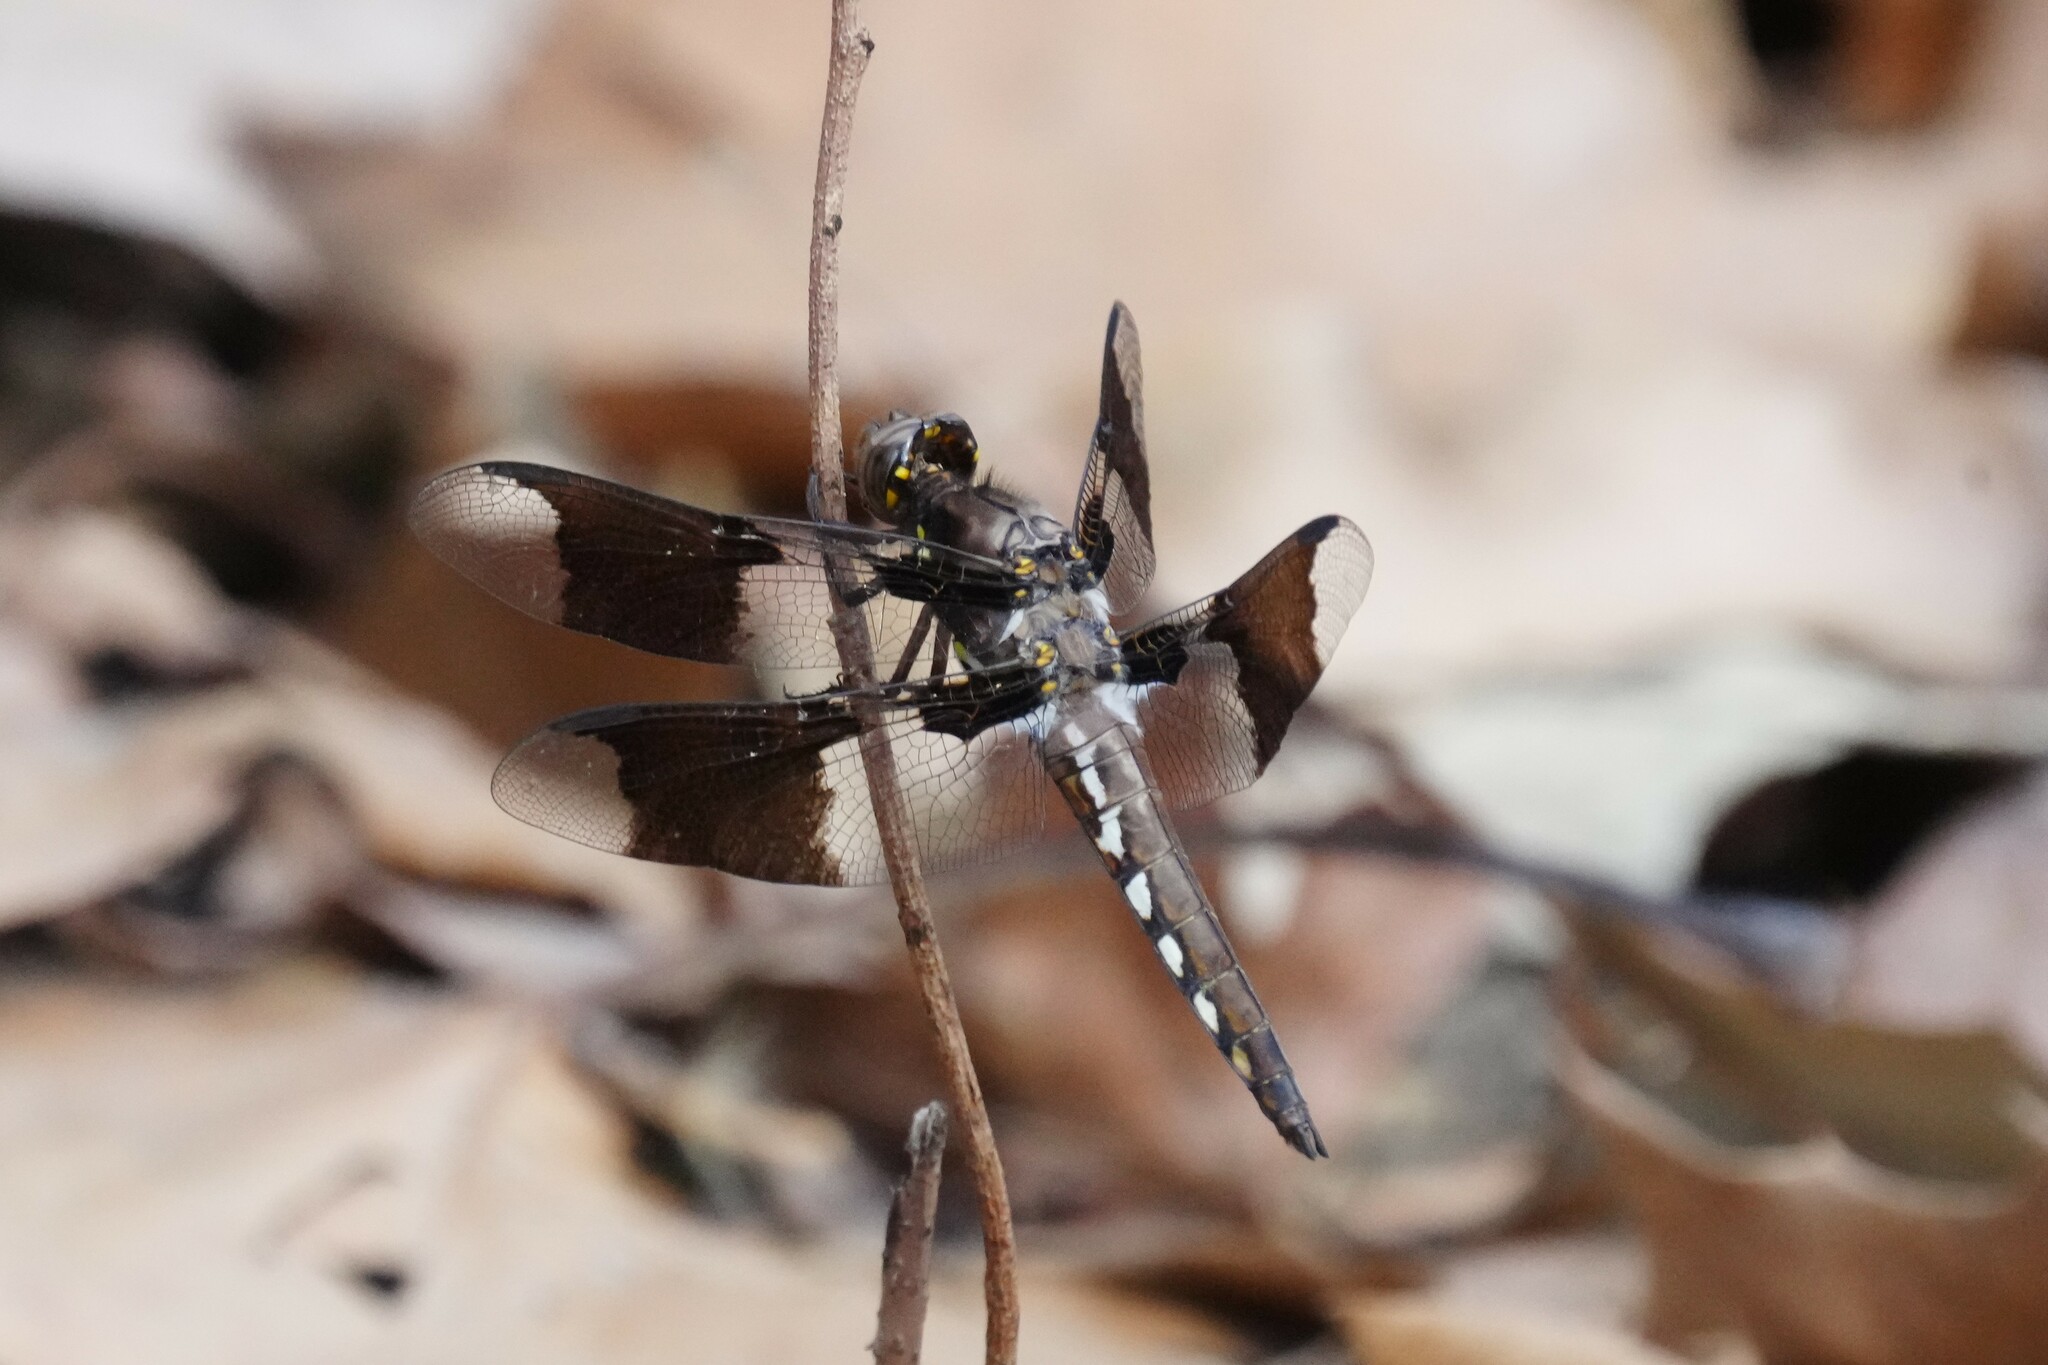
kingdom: Animalia
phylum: Arthropoda
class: Insecta
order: Odonata
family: Libellulidae
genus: Plathemis
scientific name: Plathemis lydia
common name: Common whitetail
